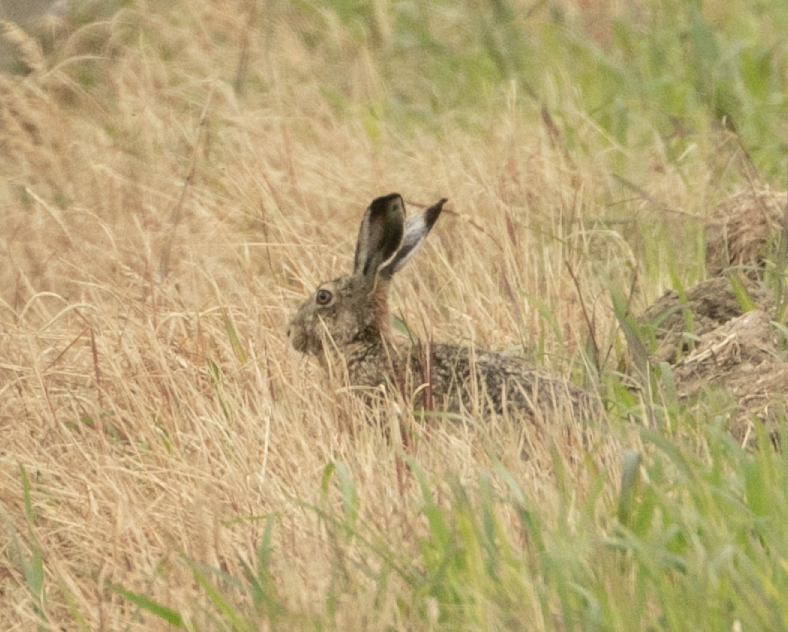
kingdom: Animalia
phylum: Chordata
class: Mammalia
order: Lagomorpha
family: Leporidae
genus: Lepus
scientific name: Lepus europaeus
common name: European hare
